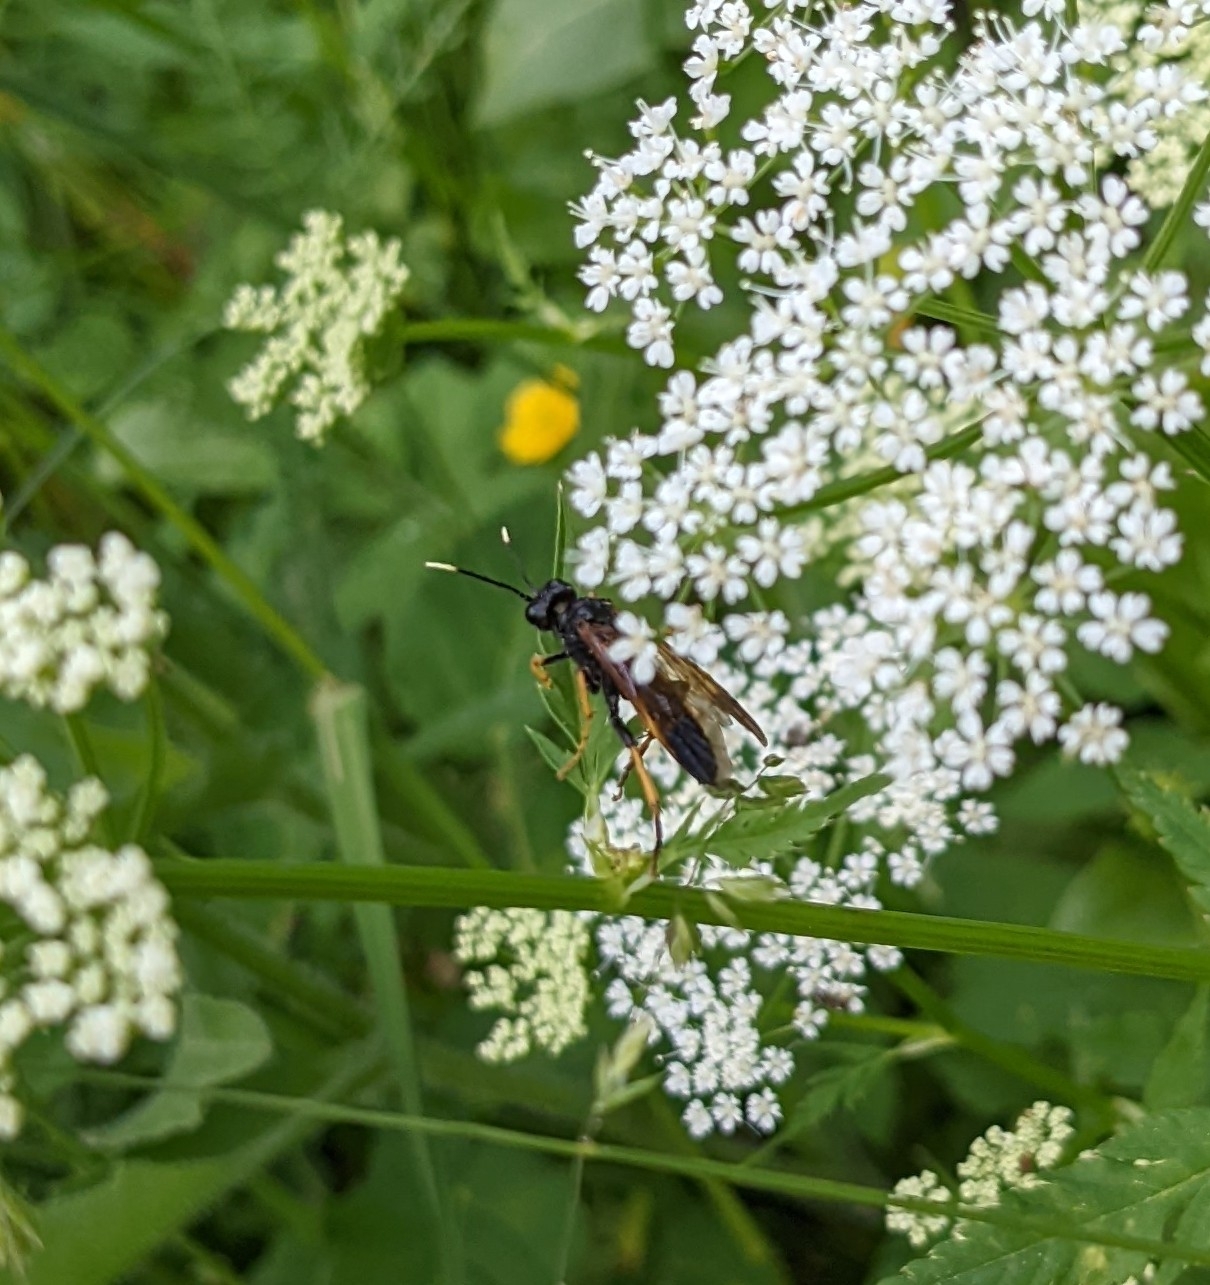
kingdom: Animalia
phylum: Arthropoda
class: Insecta
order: Hymenoptera
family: Tenthredinidae
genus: Tenthredo
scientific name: Tenthredo crassa
